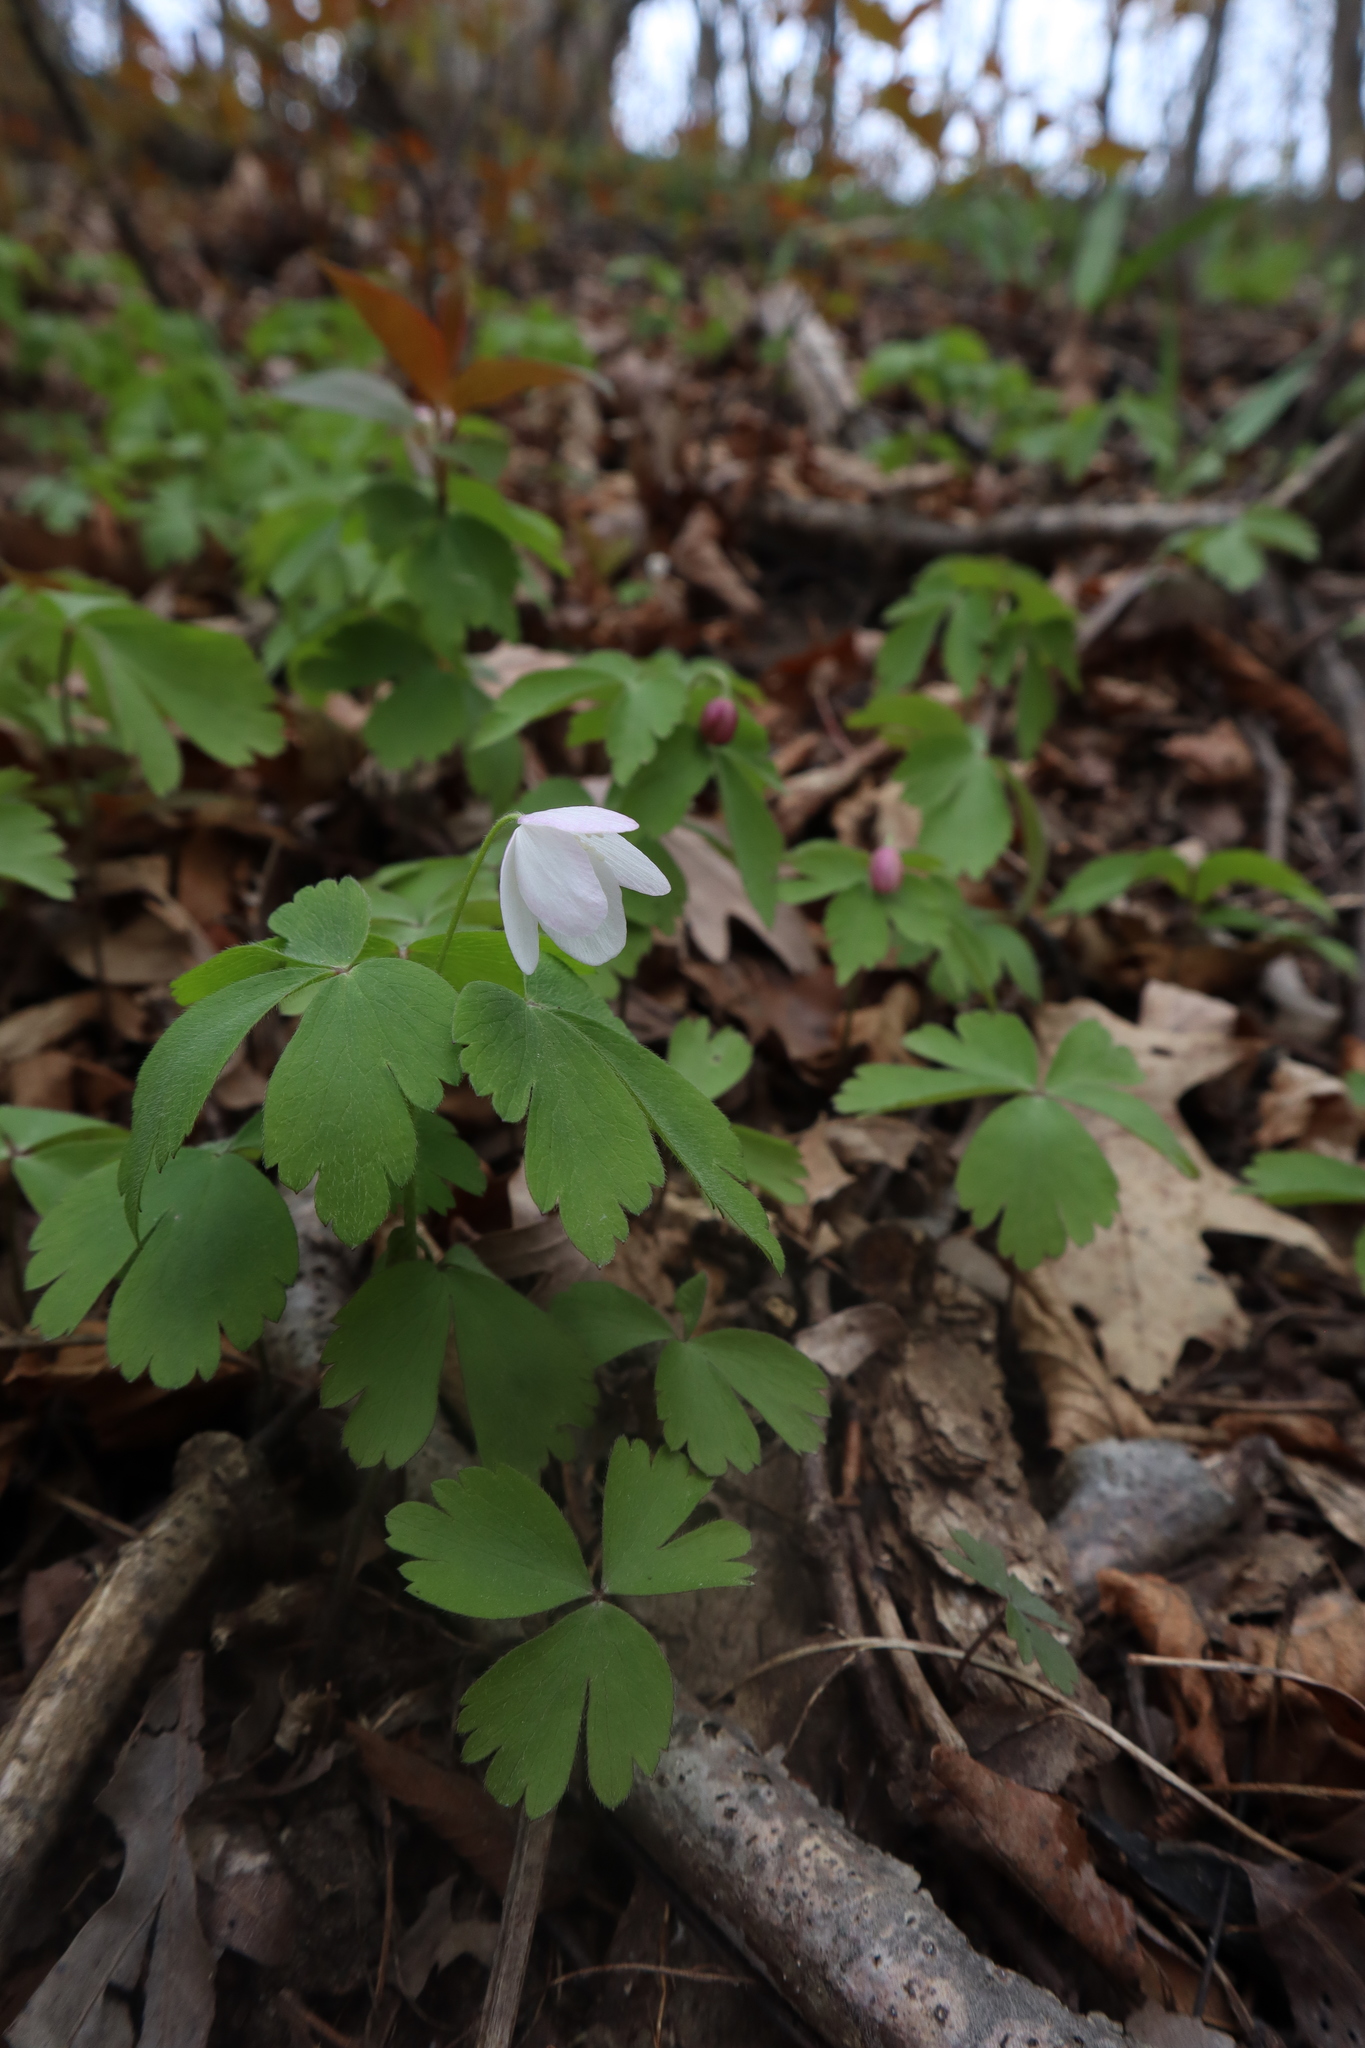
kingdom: Plantae
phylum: Tracheophyta
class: Magnoliopsida
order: Ranunculales
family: Ranunculaceae
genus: Anemone
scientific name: Anemone quinquefolia
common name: Wood anemone
